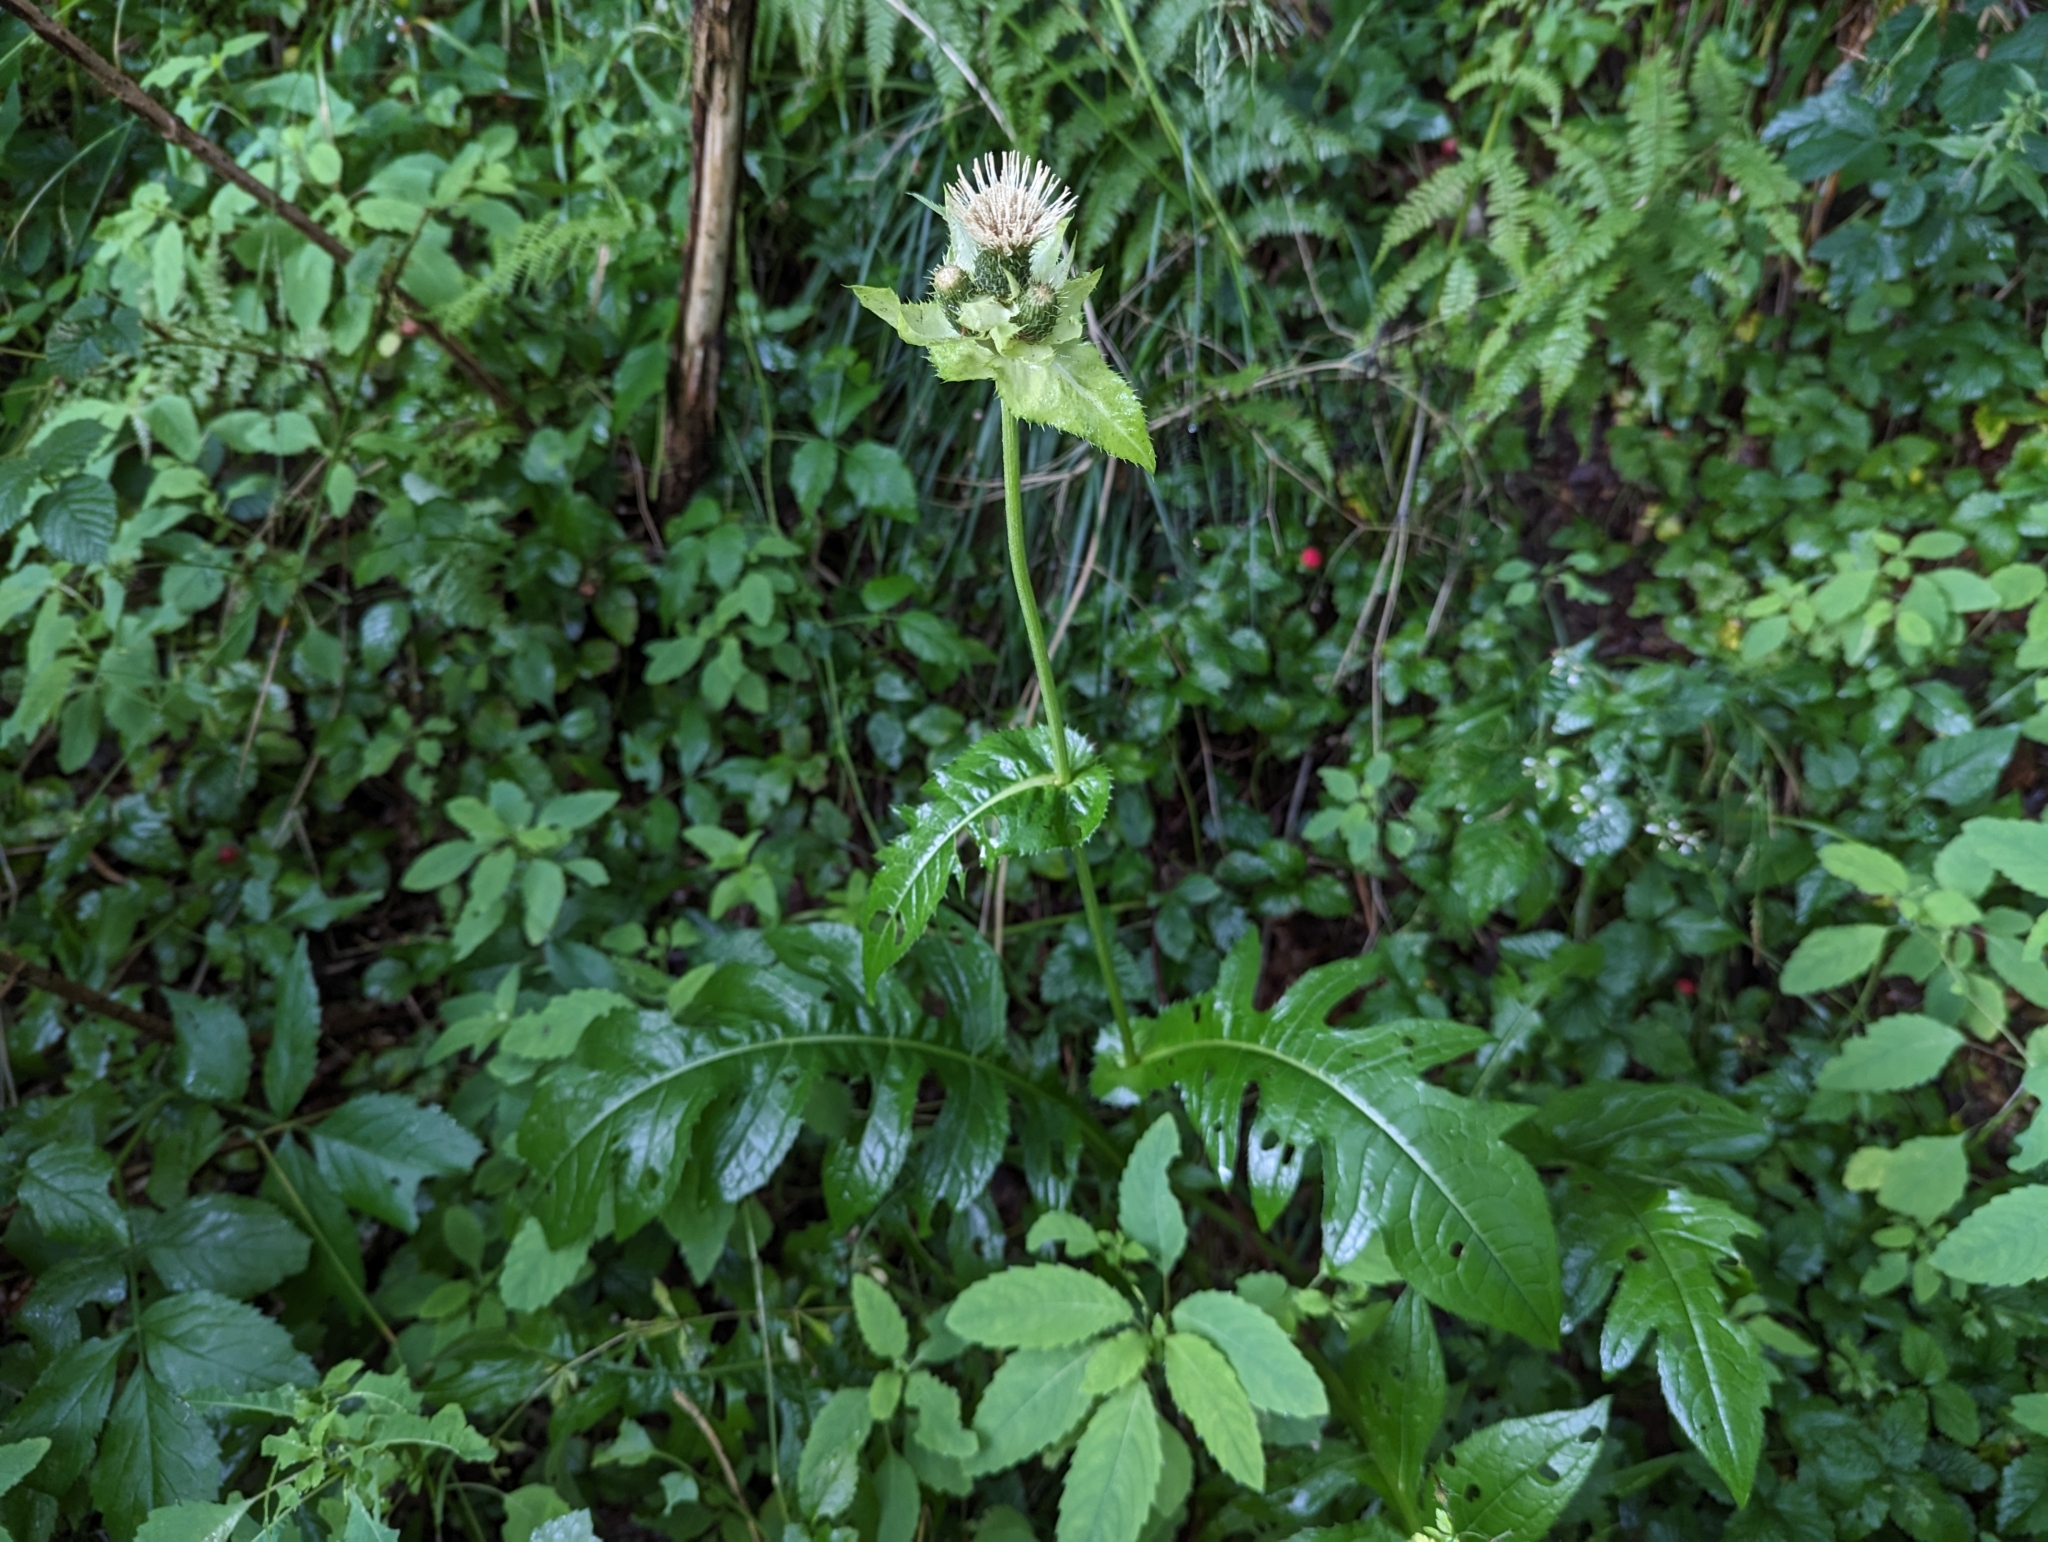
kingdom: Plantae
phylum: Tracheophyta
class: Magnoliopsida
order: Asterales
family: Asteraceae
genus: Cirsium
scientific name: Cirsium oleraceum
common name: Cabbage thistle
